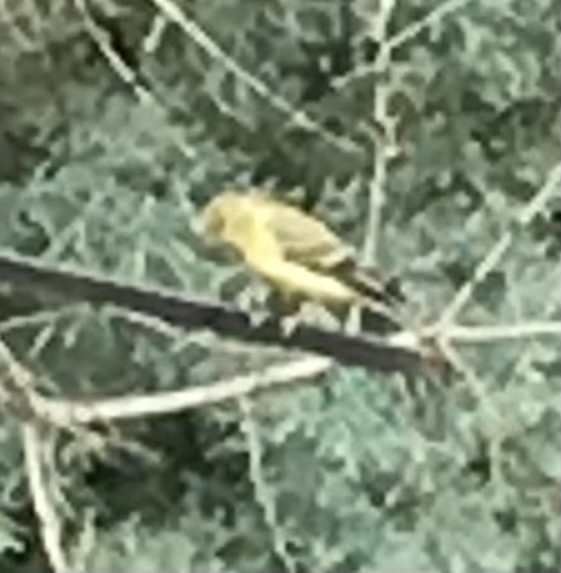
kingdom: Animalia
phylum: Chordata
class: Aves
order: Passeriformes
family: Fringillidae
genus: Spinus
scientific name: Spinus psaltria
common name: Lesser goldfinch
